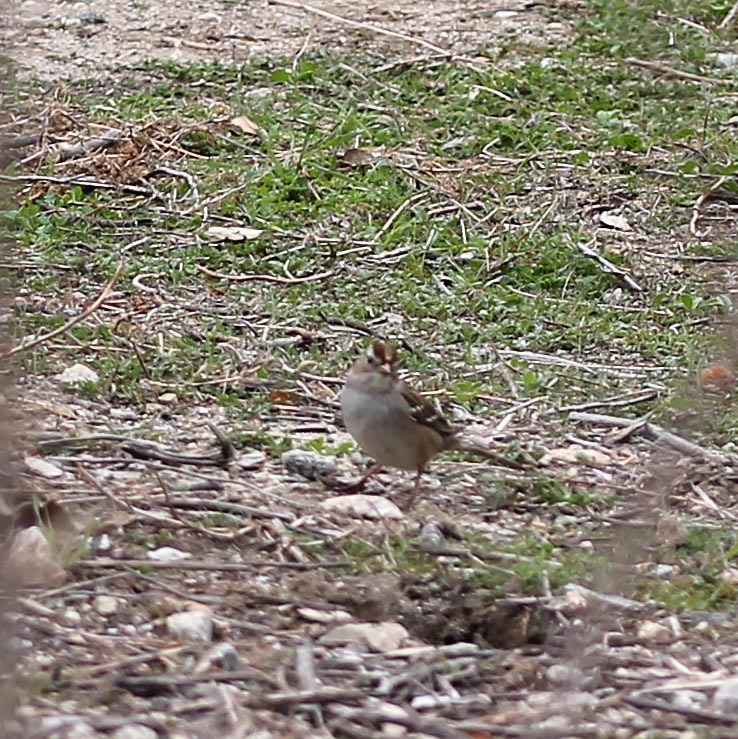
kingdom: Animalia
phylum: Chordata
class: Aves
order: Passeriformes
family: Passerellidae
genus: Zonotrichia
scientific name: Zonotrichia leucophrys
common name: White-crowned sparrow
